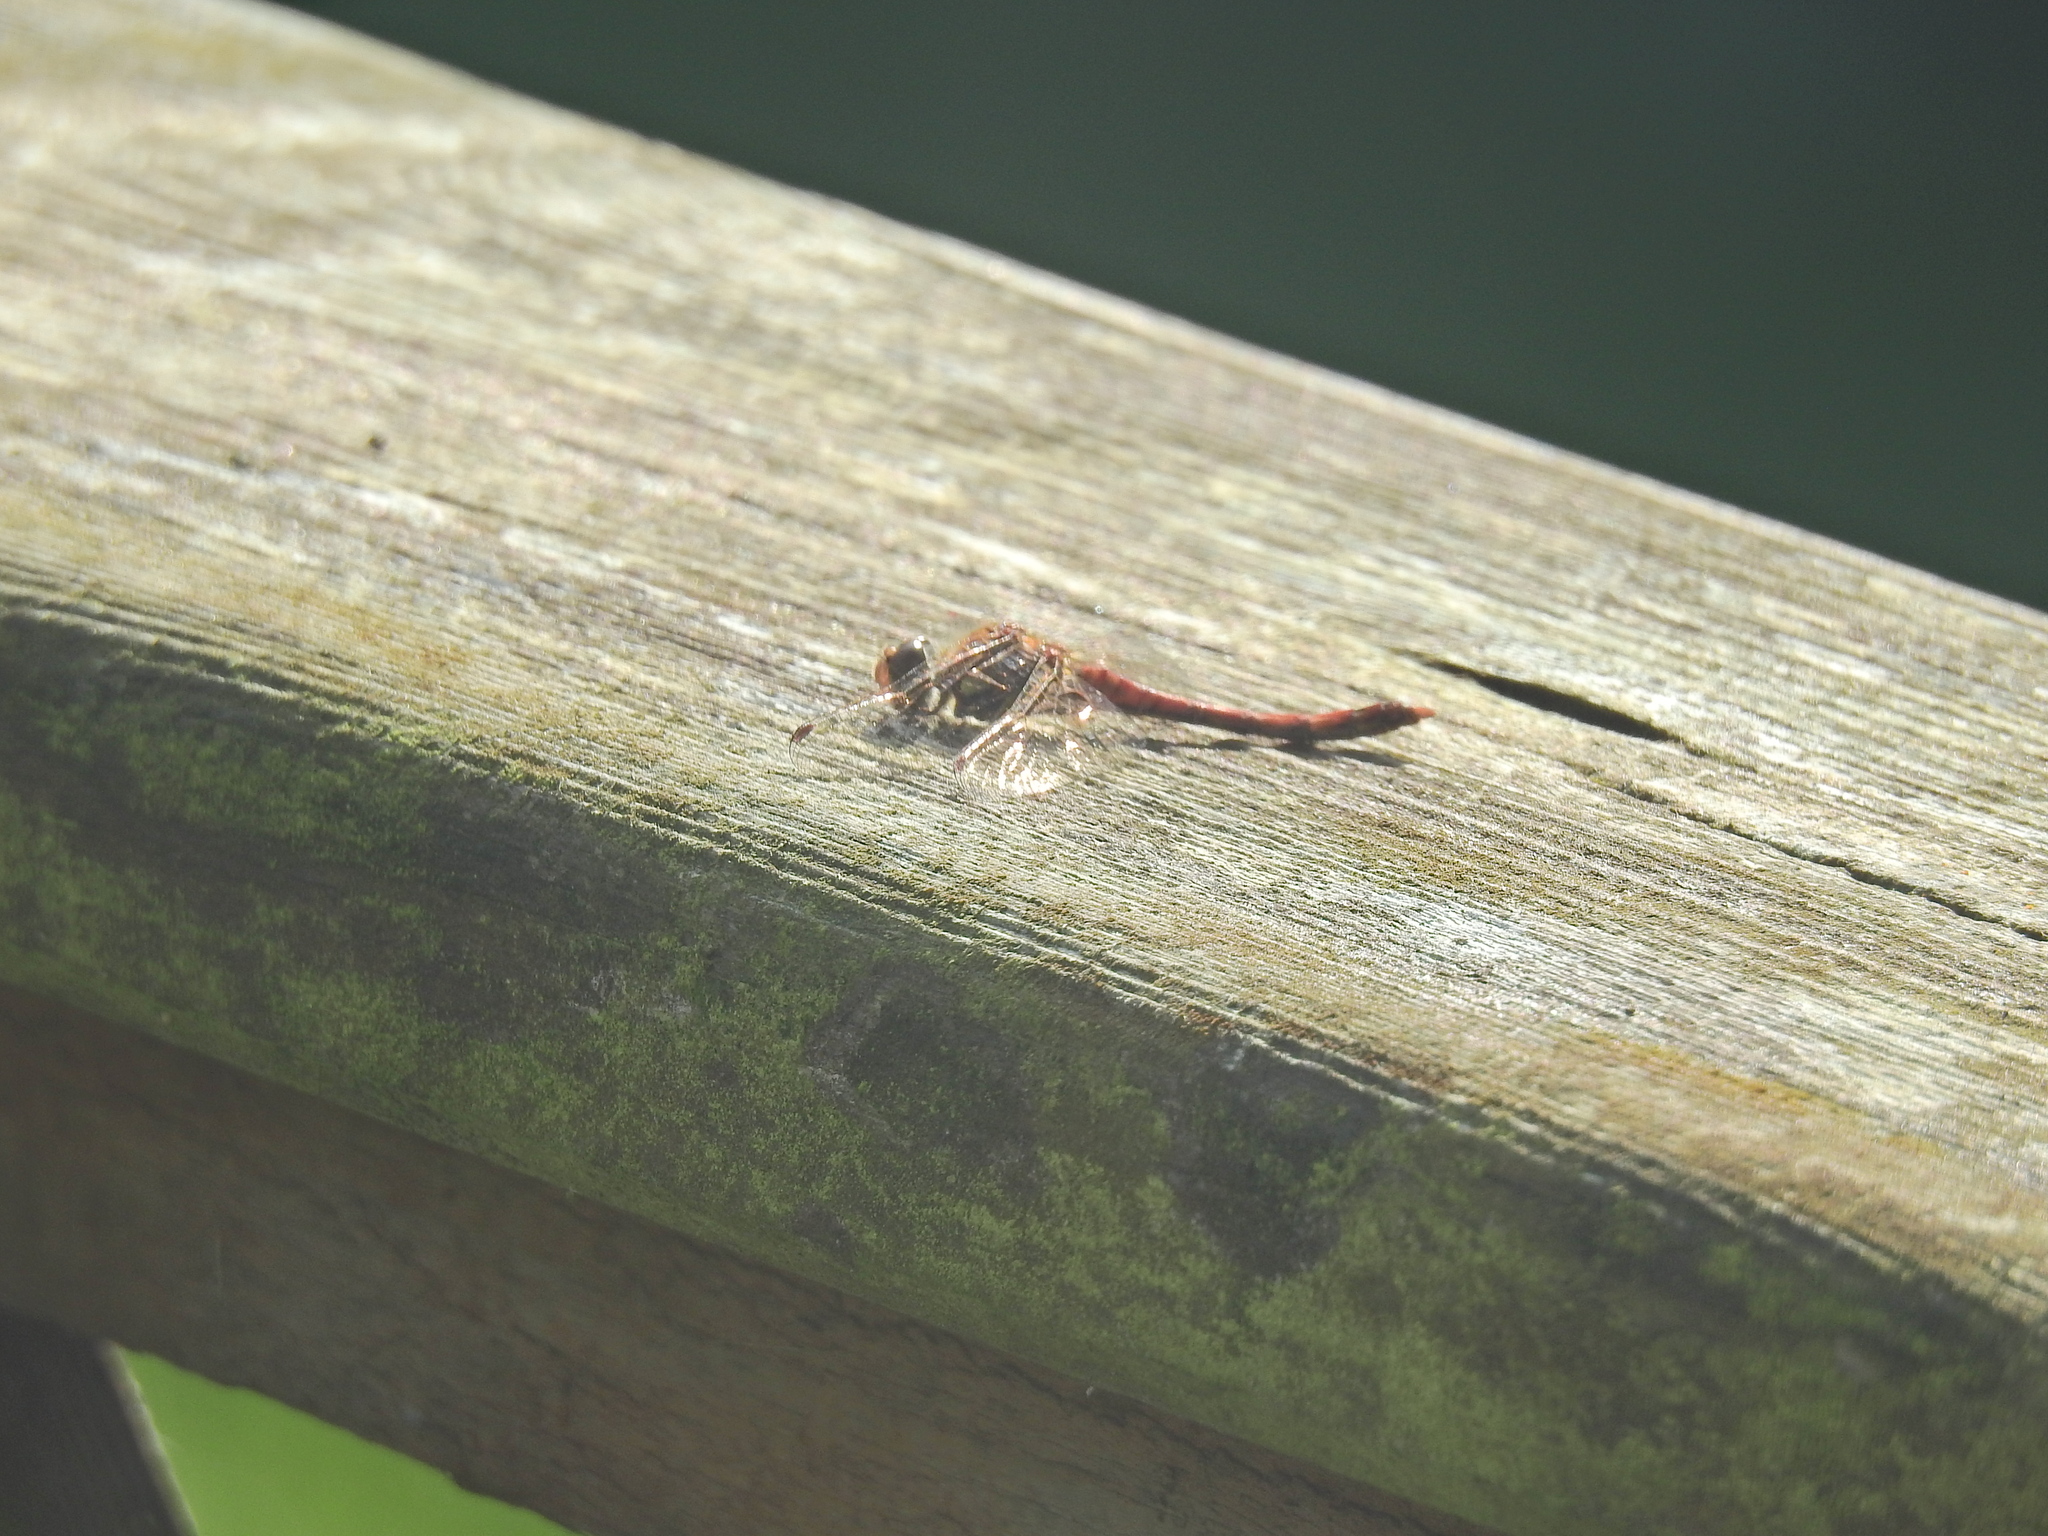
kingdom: Animalia
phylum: Arthropoda
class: Insecta
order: Odonata
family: Libellulidae
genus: Sympetrum
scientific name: Sympetrum striolatum
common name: Common darter
